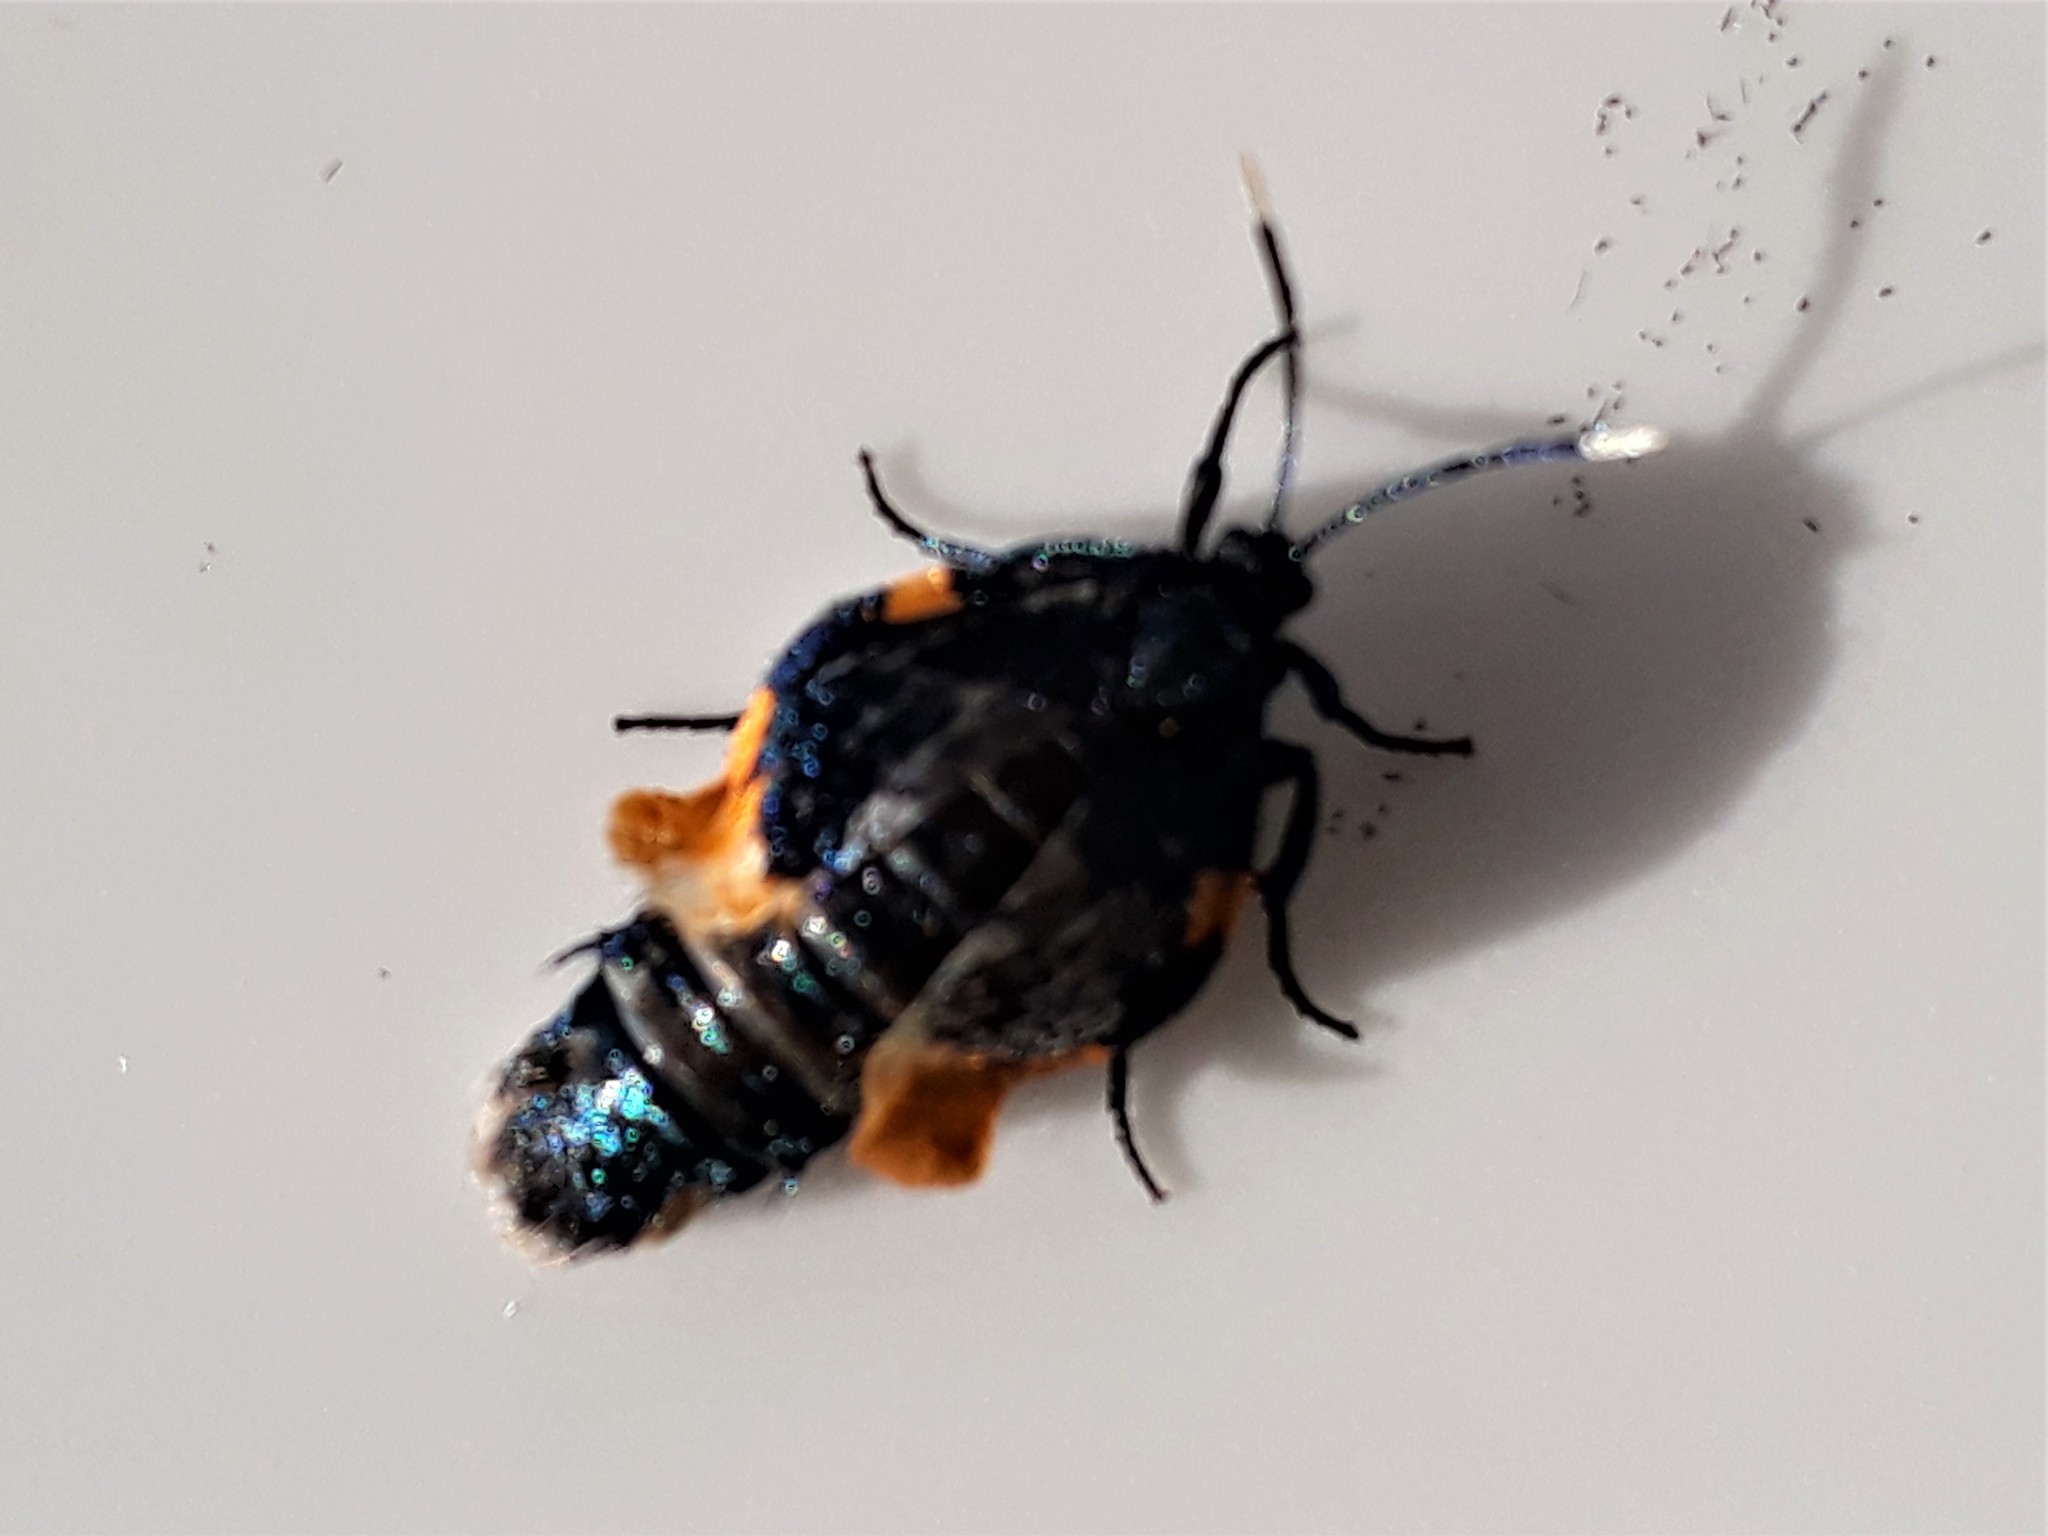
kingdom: Animalia
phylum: Arthropoda
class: Insecta
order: Lepidoptera
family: Psychidae
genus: Cebysa
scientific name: Cebysa leucotelus
